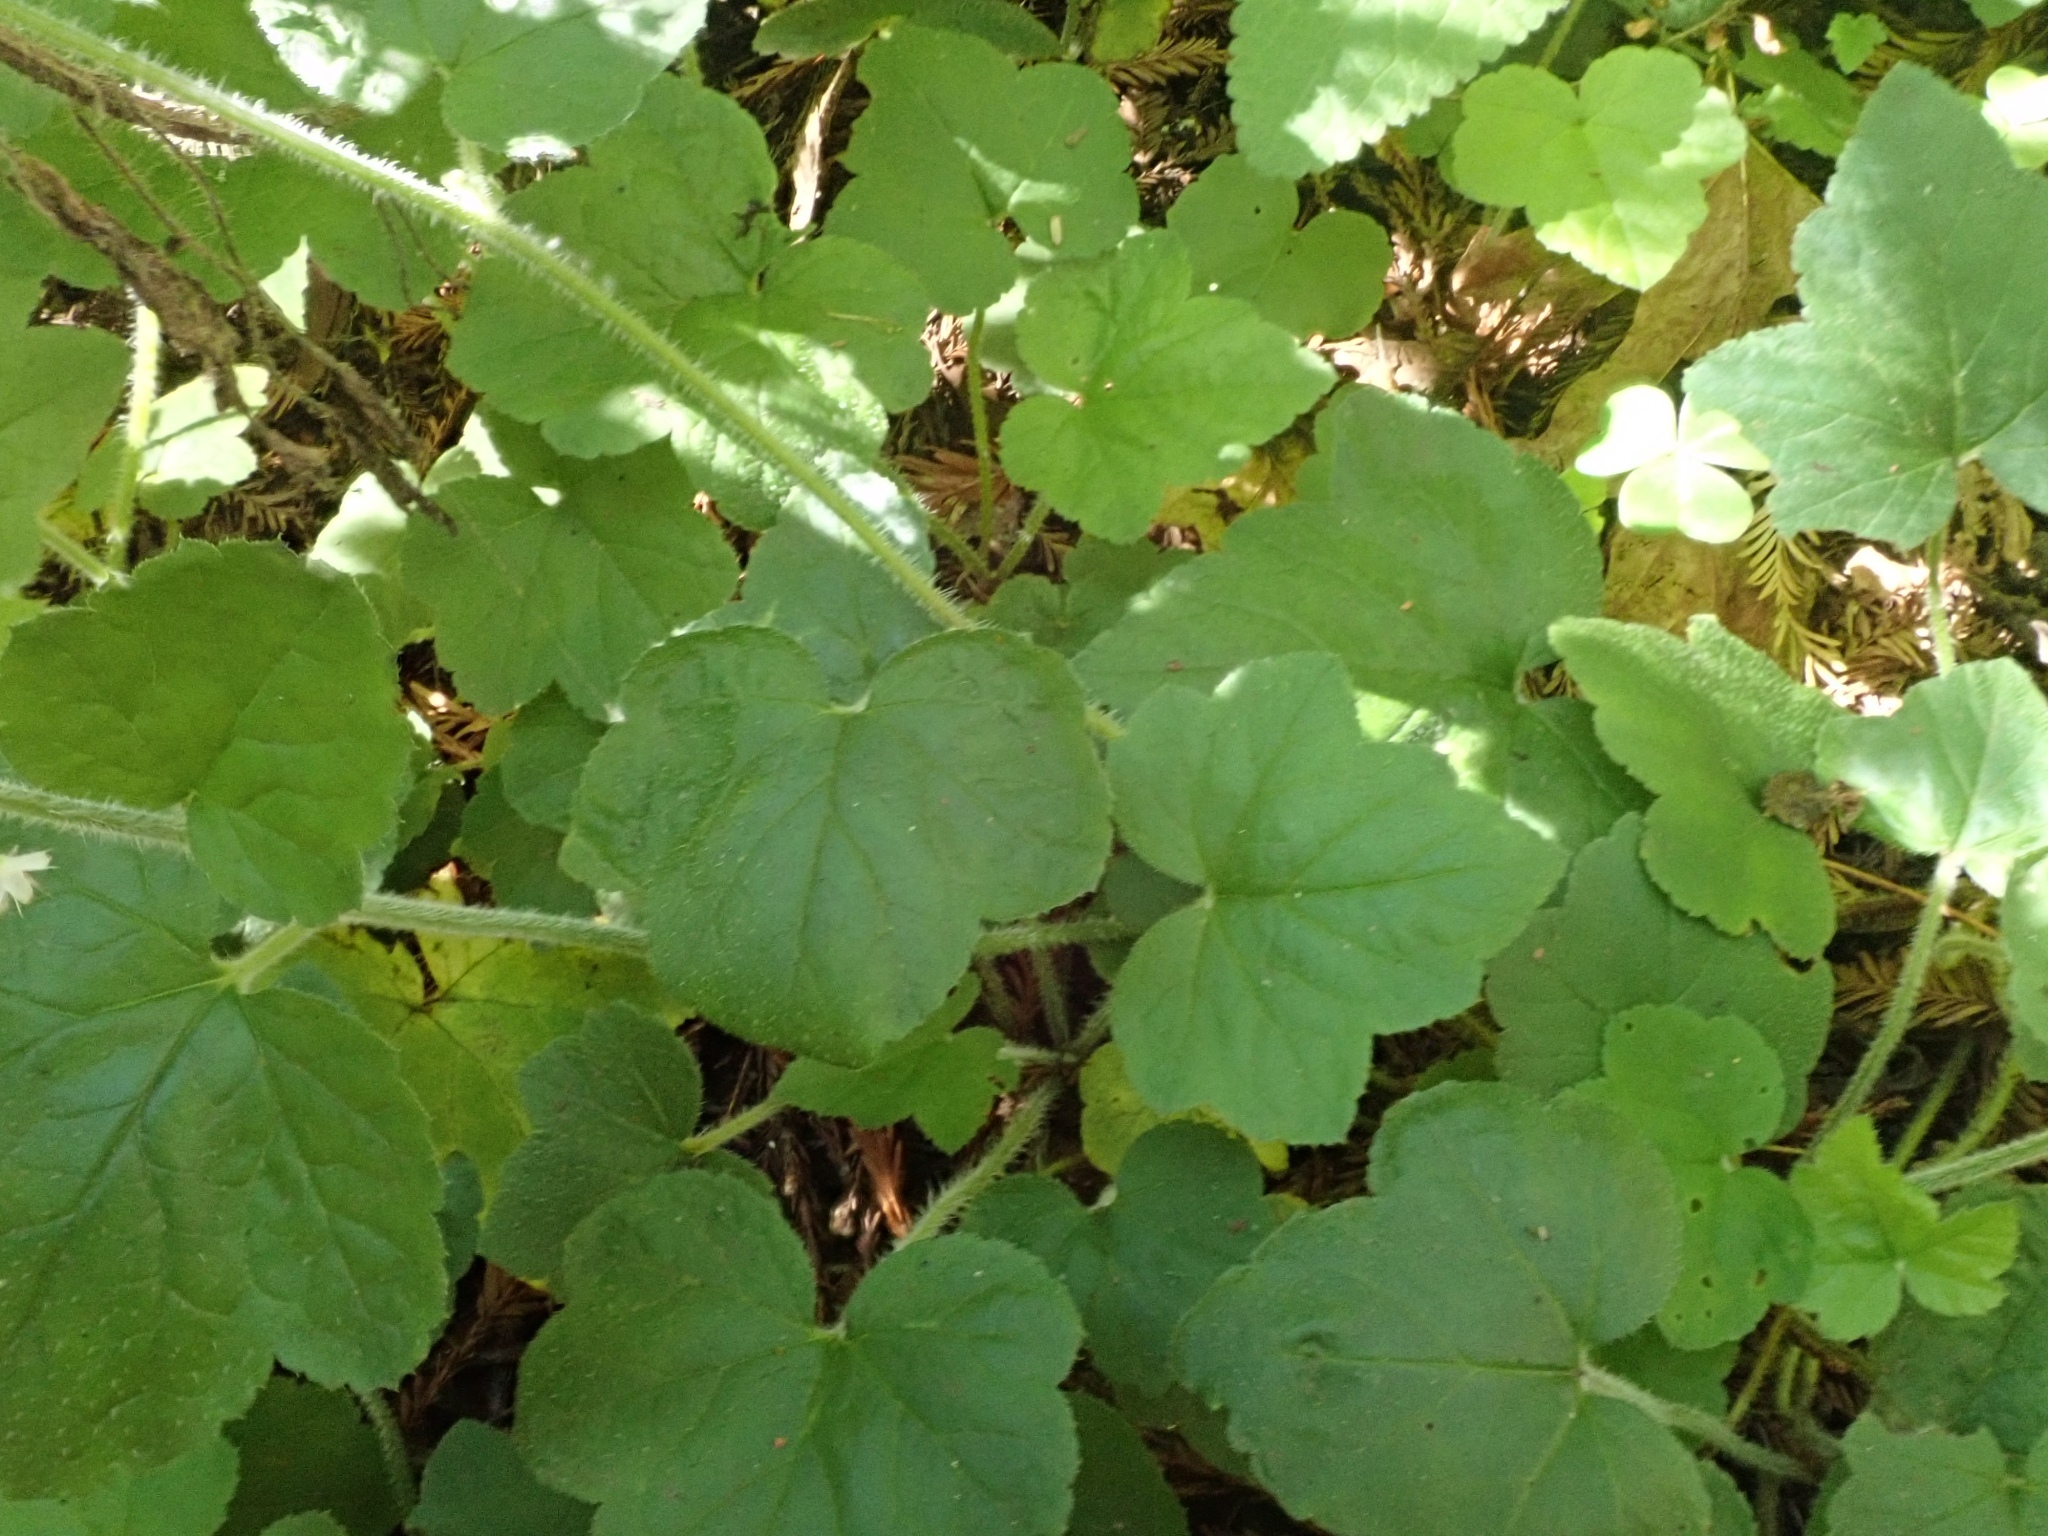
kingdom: Plantae
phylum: Tracheophyta
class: Magnoliopsida
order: Saxifragales
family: Saxifragaceae
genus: Tiarella
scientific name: Tiarella trifoliata
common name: Sugar-scoop
